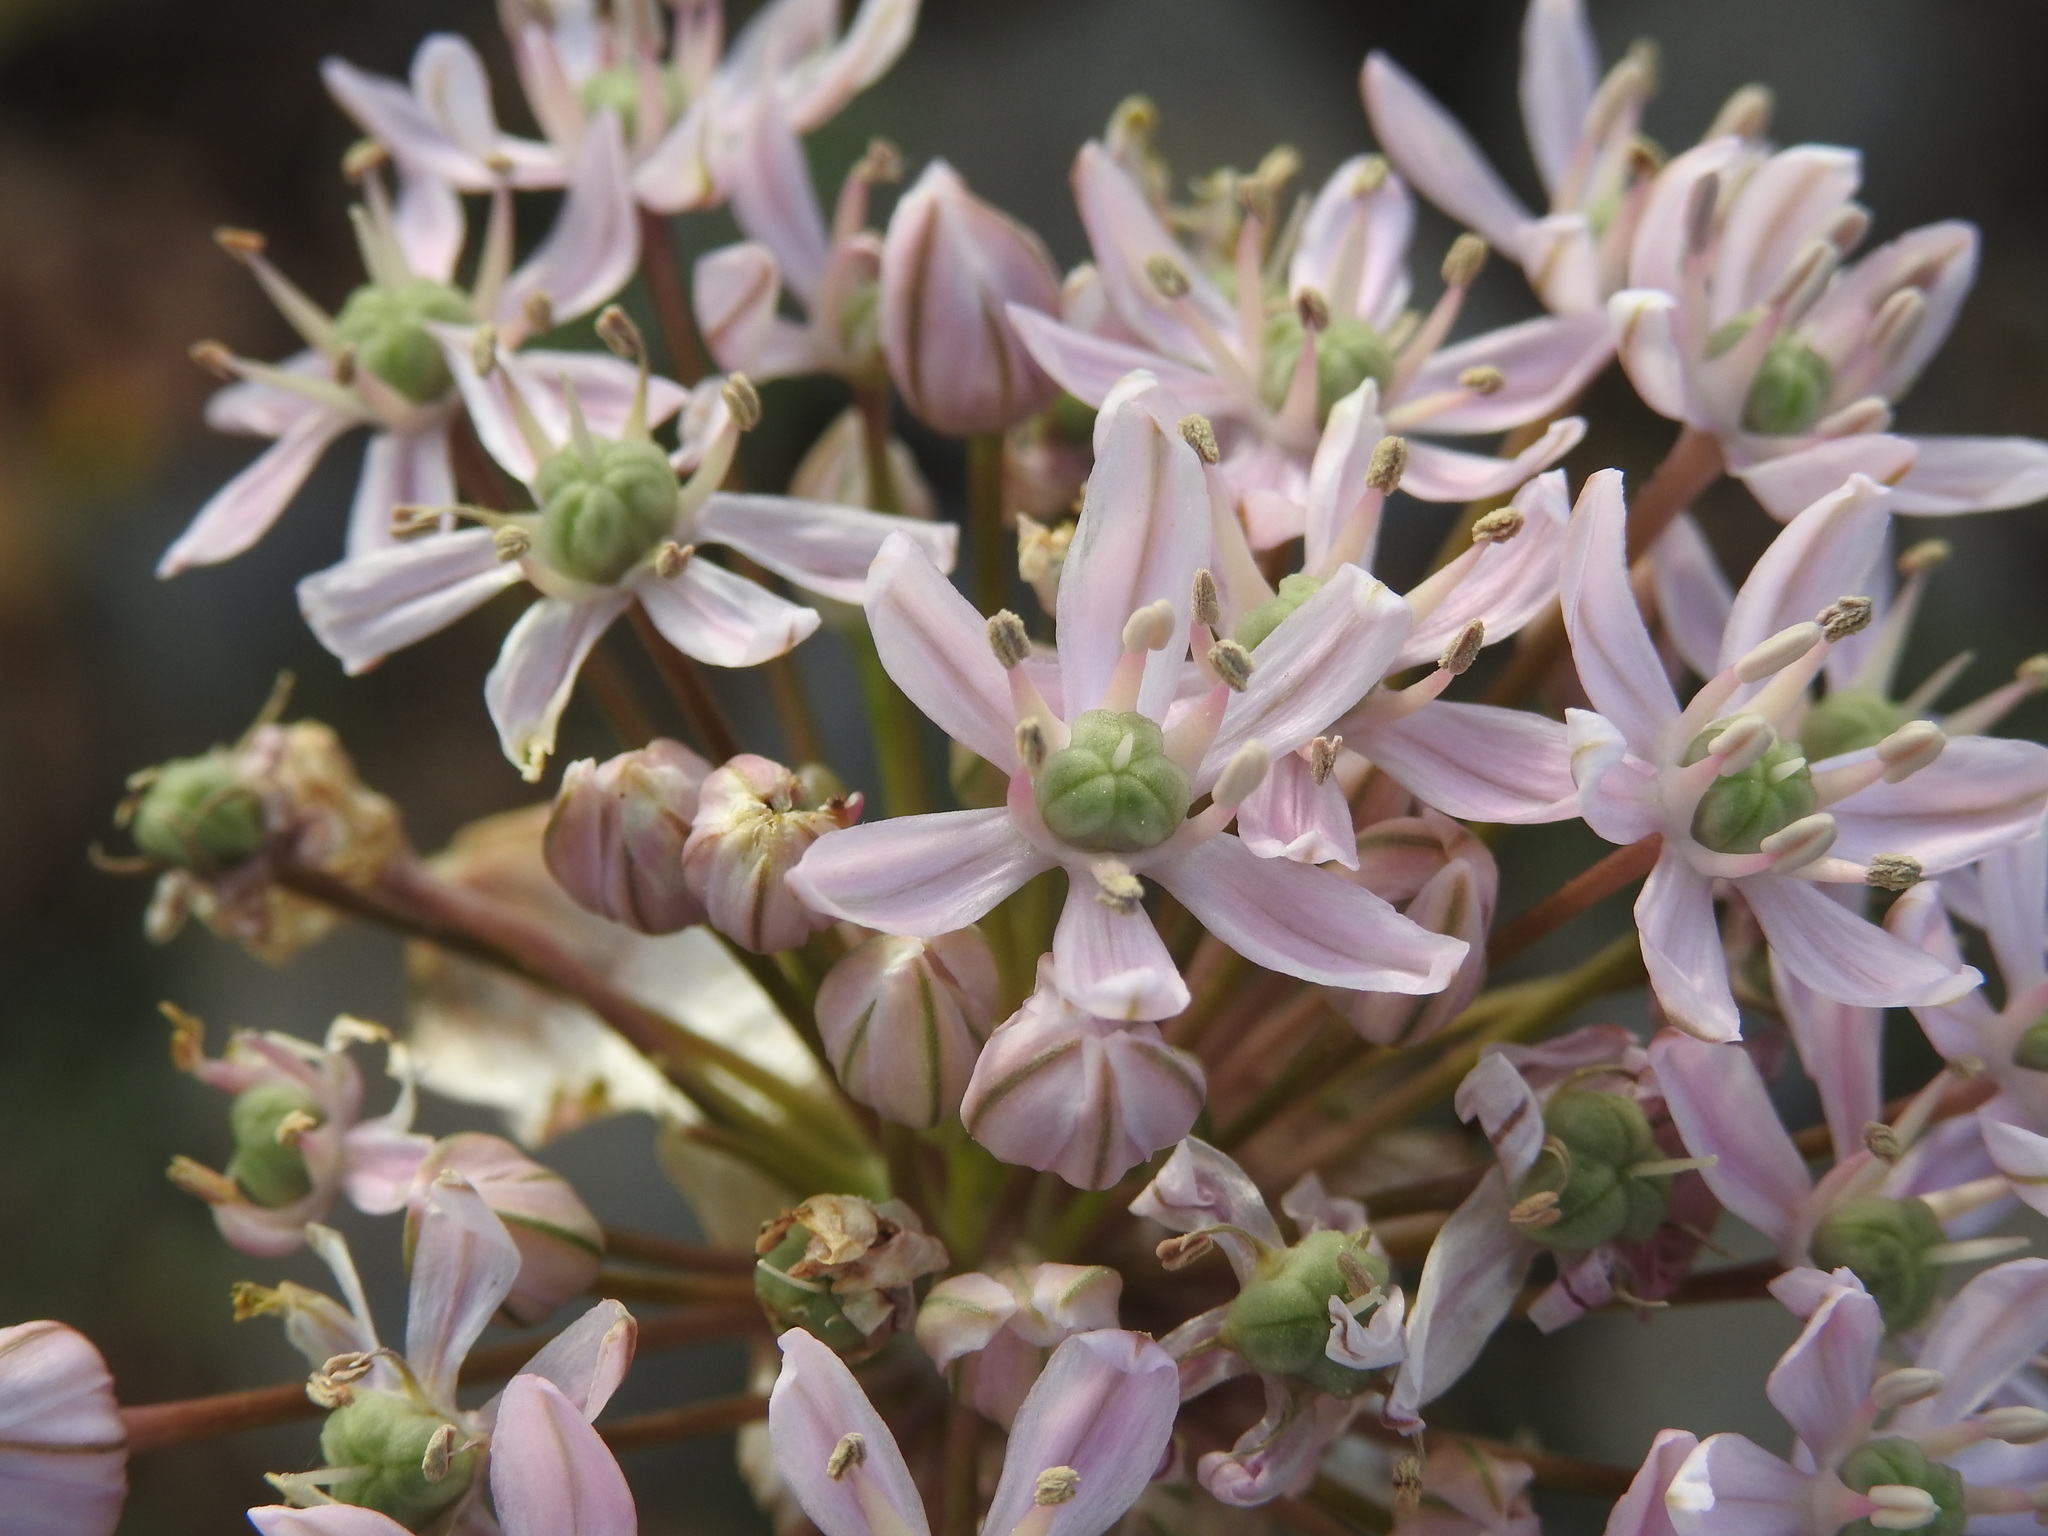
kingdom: Plantae
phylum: Tracheophyta
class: Liliopsida
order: Asparagales
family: Amaryllidaceae
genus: Allium
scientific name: Allium nigrum
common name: Black garlic
